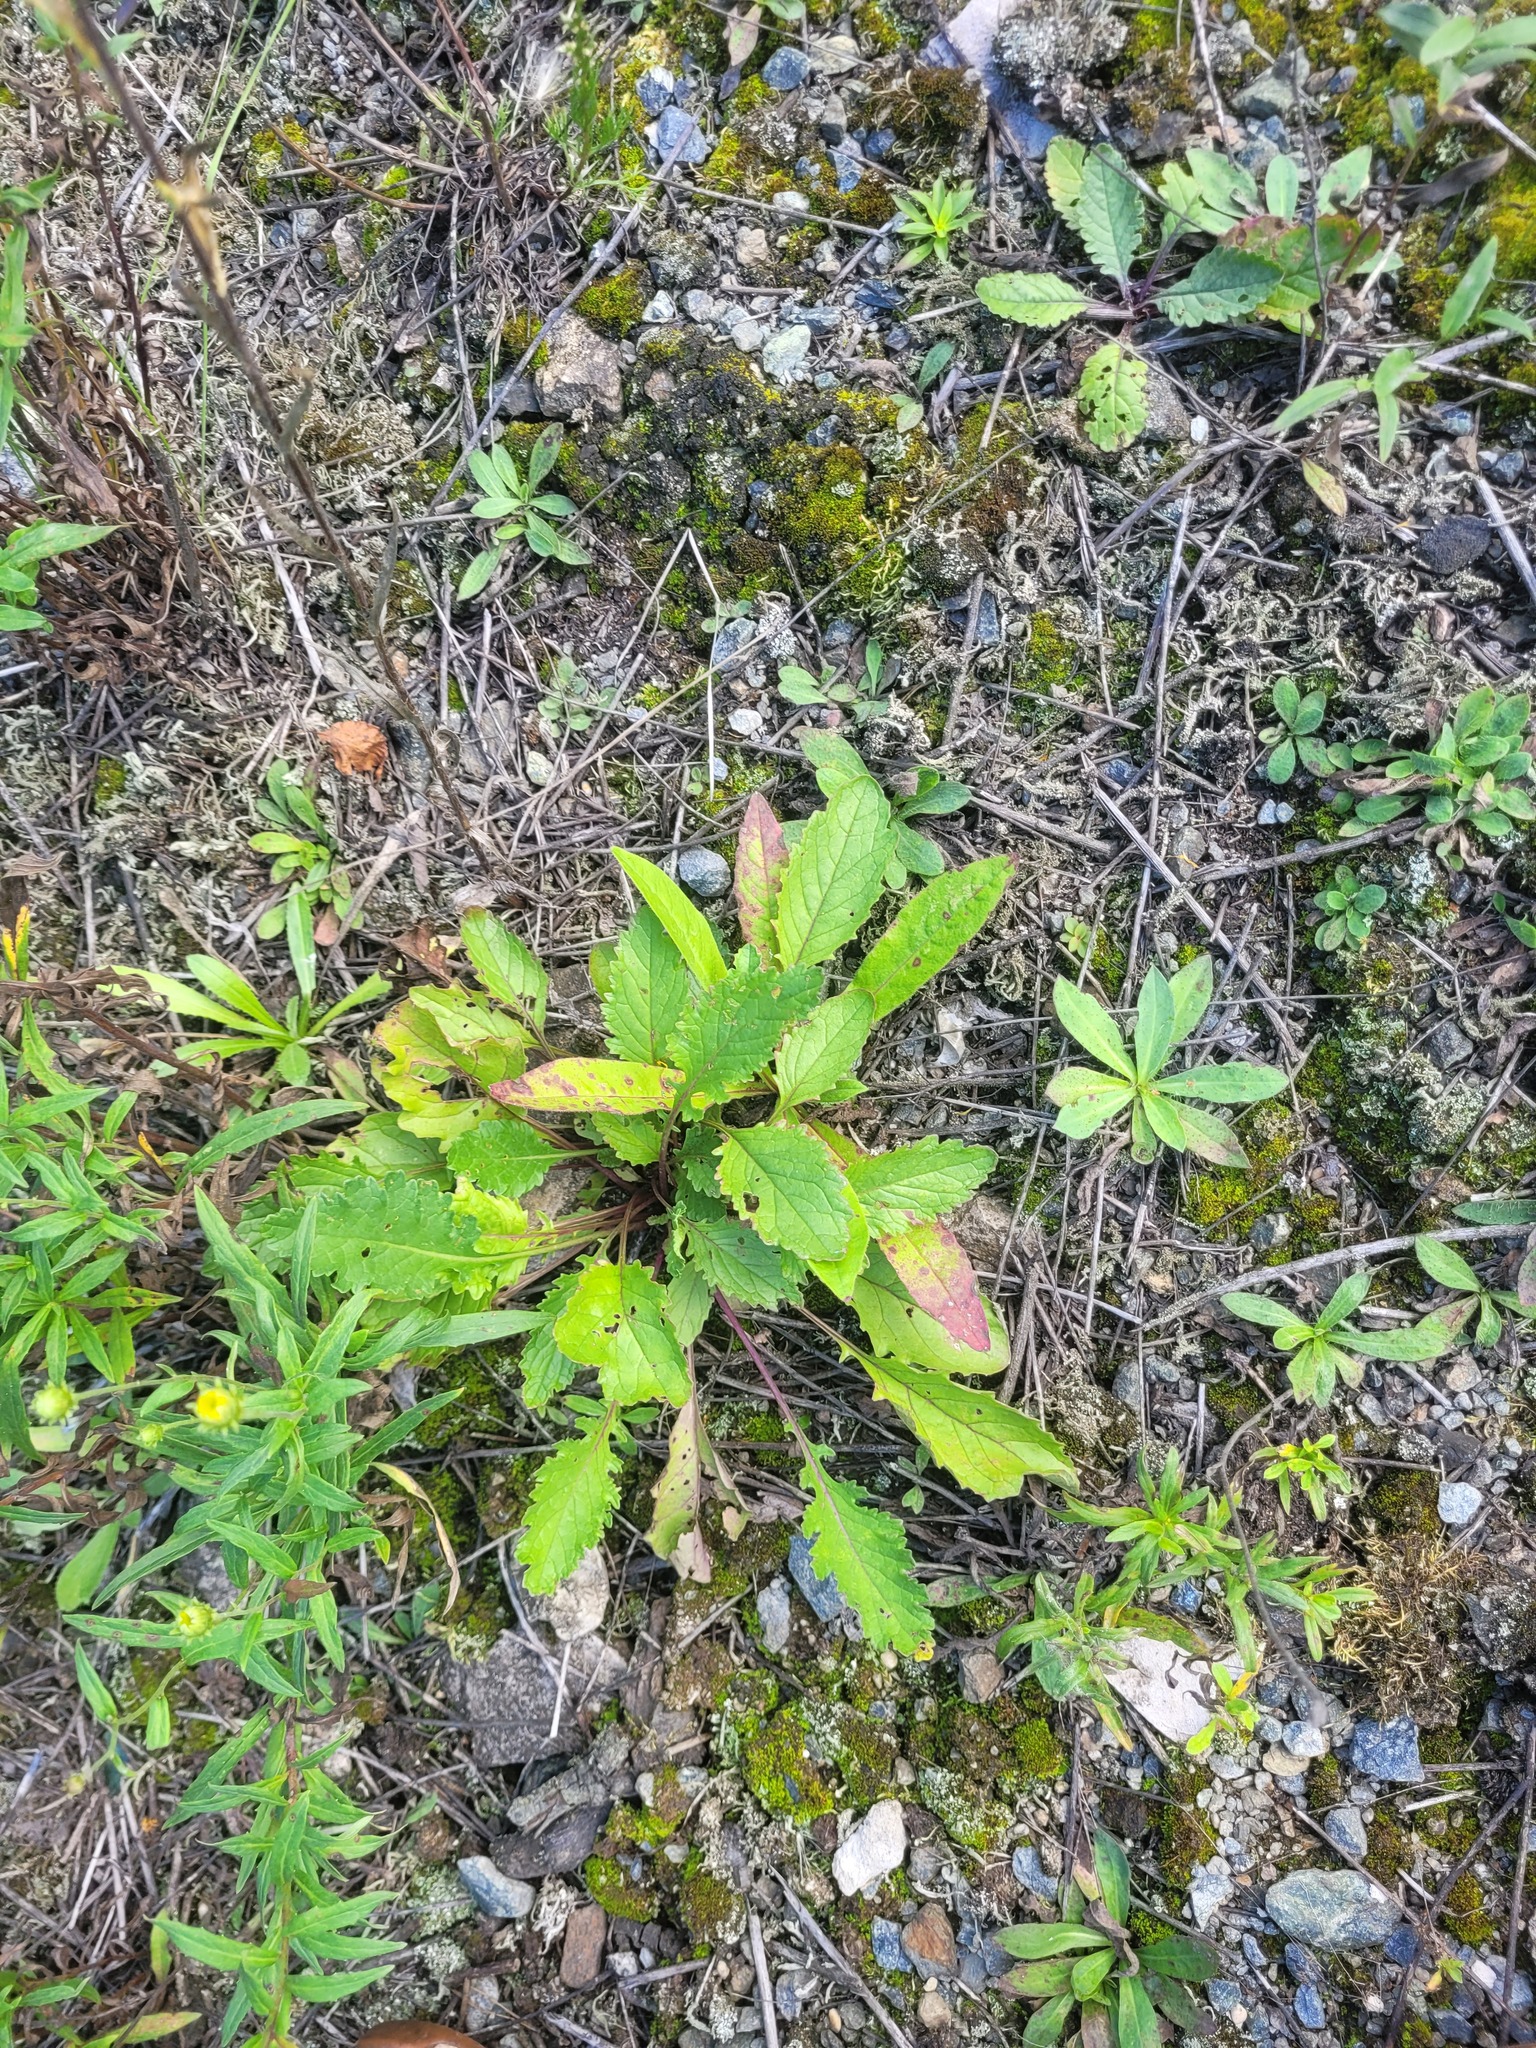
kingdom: Plantae
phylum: Tracheophyta
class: Magnoliopsida
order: Asterales
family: Asteraceae
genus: Jacobaea
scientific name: Jacobaea vulgaris
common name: Stinking willie
